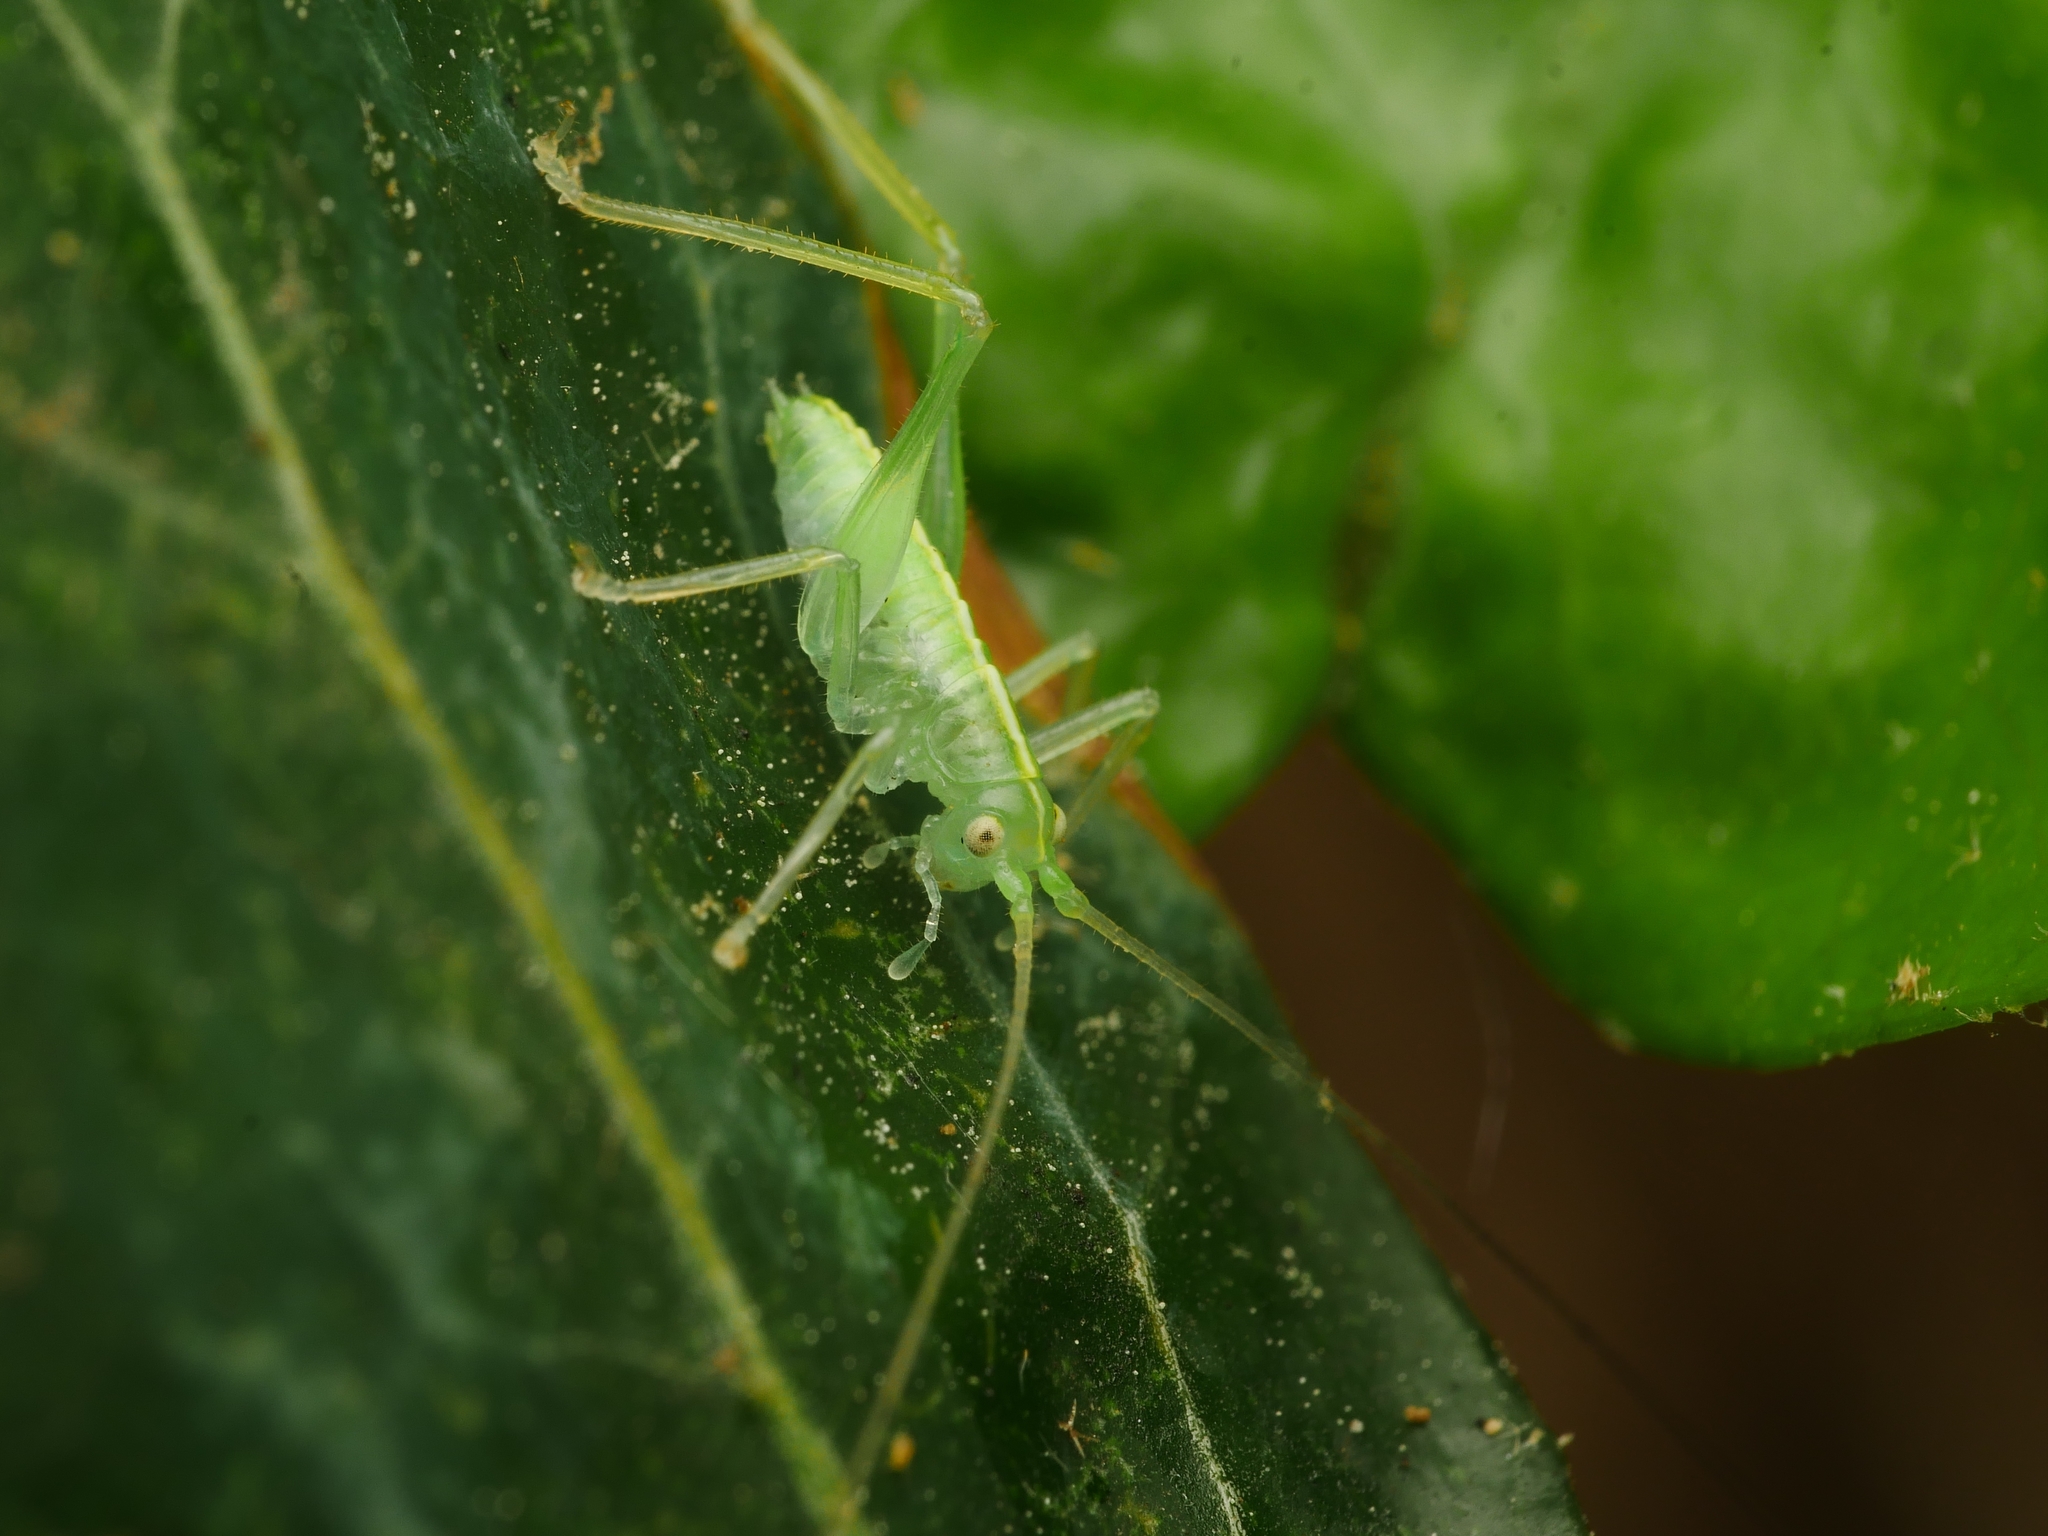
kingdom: Animalia
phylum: Arthropoda
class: Insecta
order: Orthoptera
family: Tettigoniidae
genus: Meconema
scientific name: Meconema meridionale
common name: Southern oak bush-cricket
